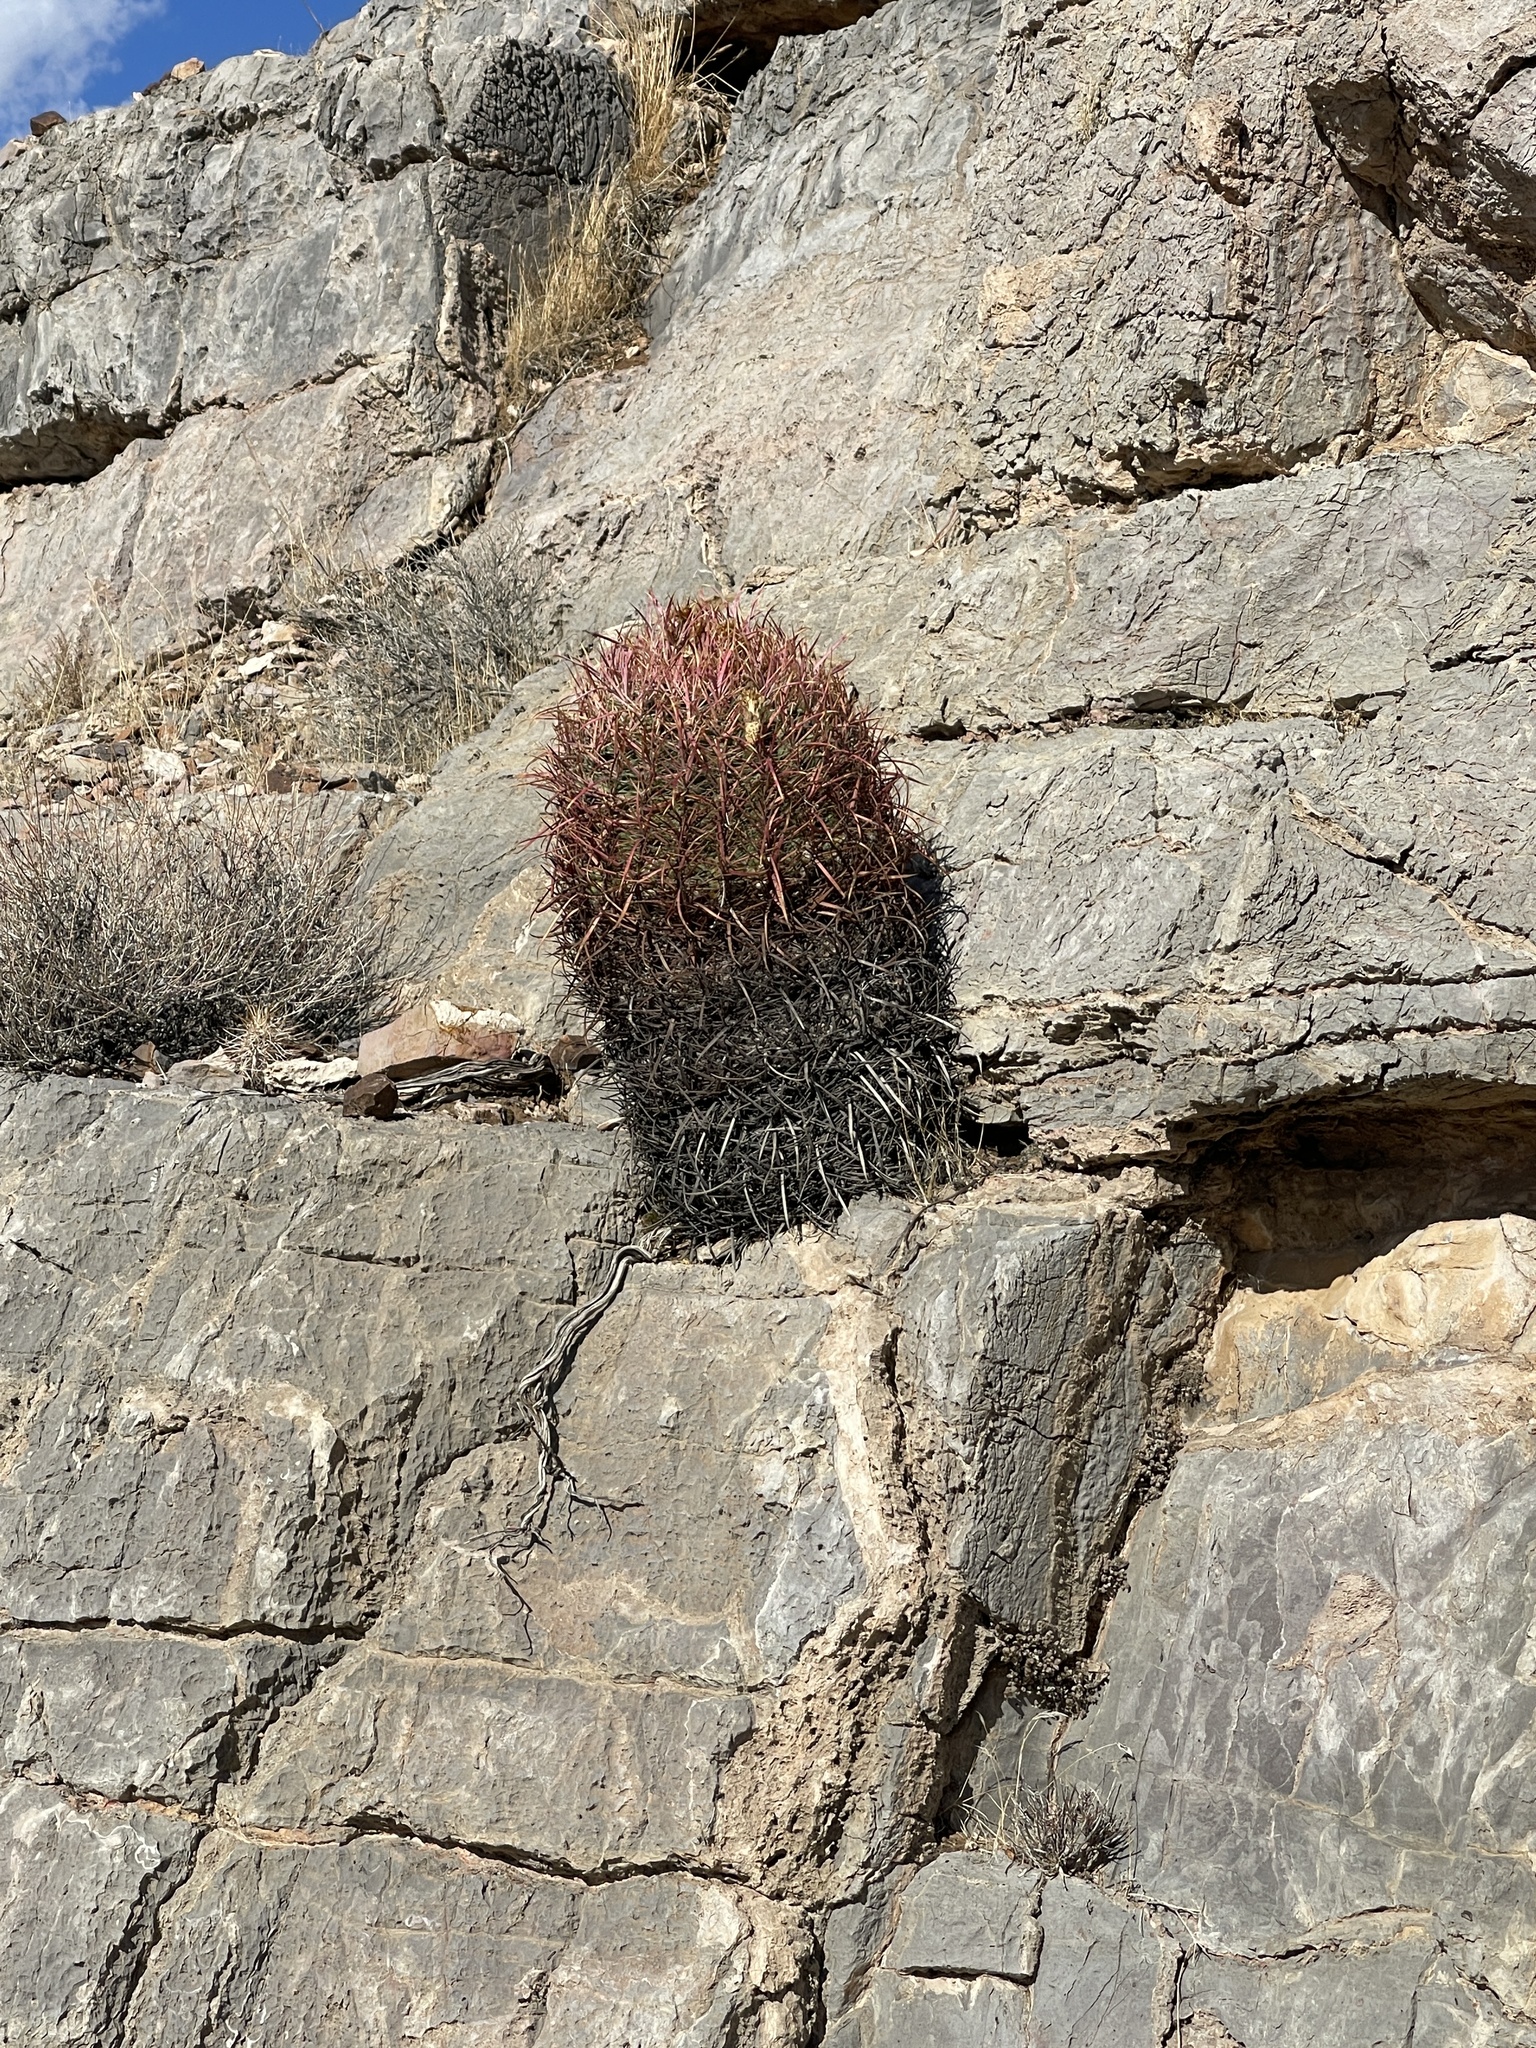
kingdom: Plantae
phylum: Tracheophyta
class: Magnoliopsida
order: Caryophyllales
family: Cactaceae
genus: Ferocactus
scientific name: Ferocactus cylindraceus
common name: California barrel cactus
